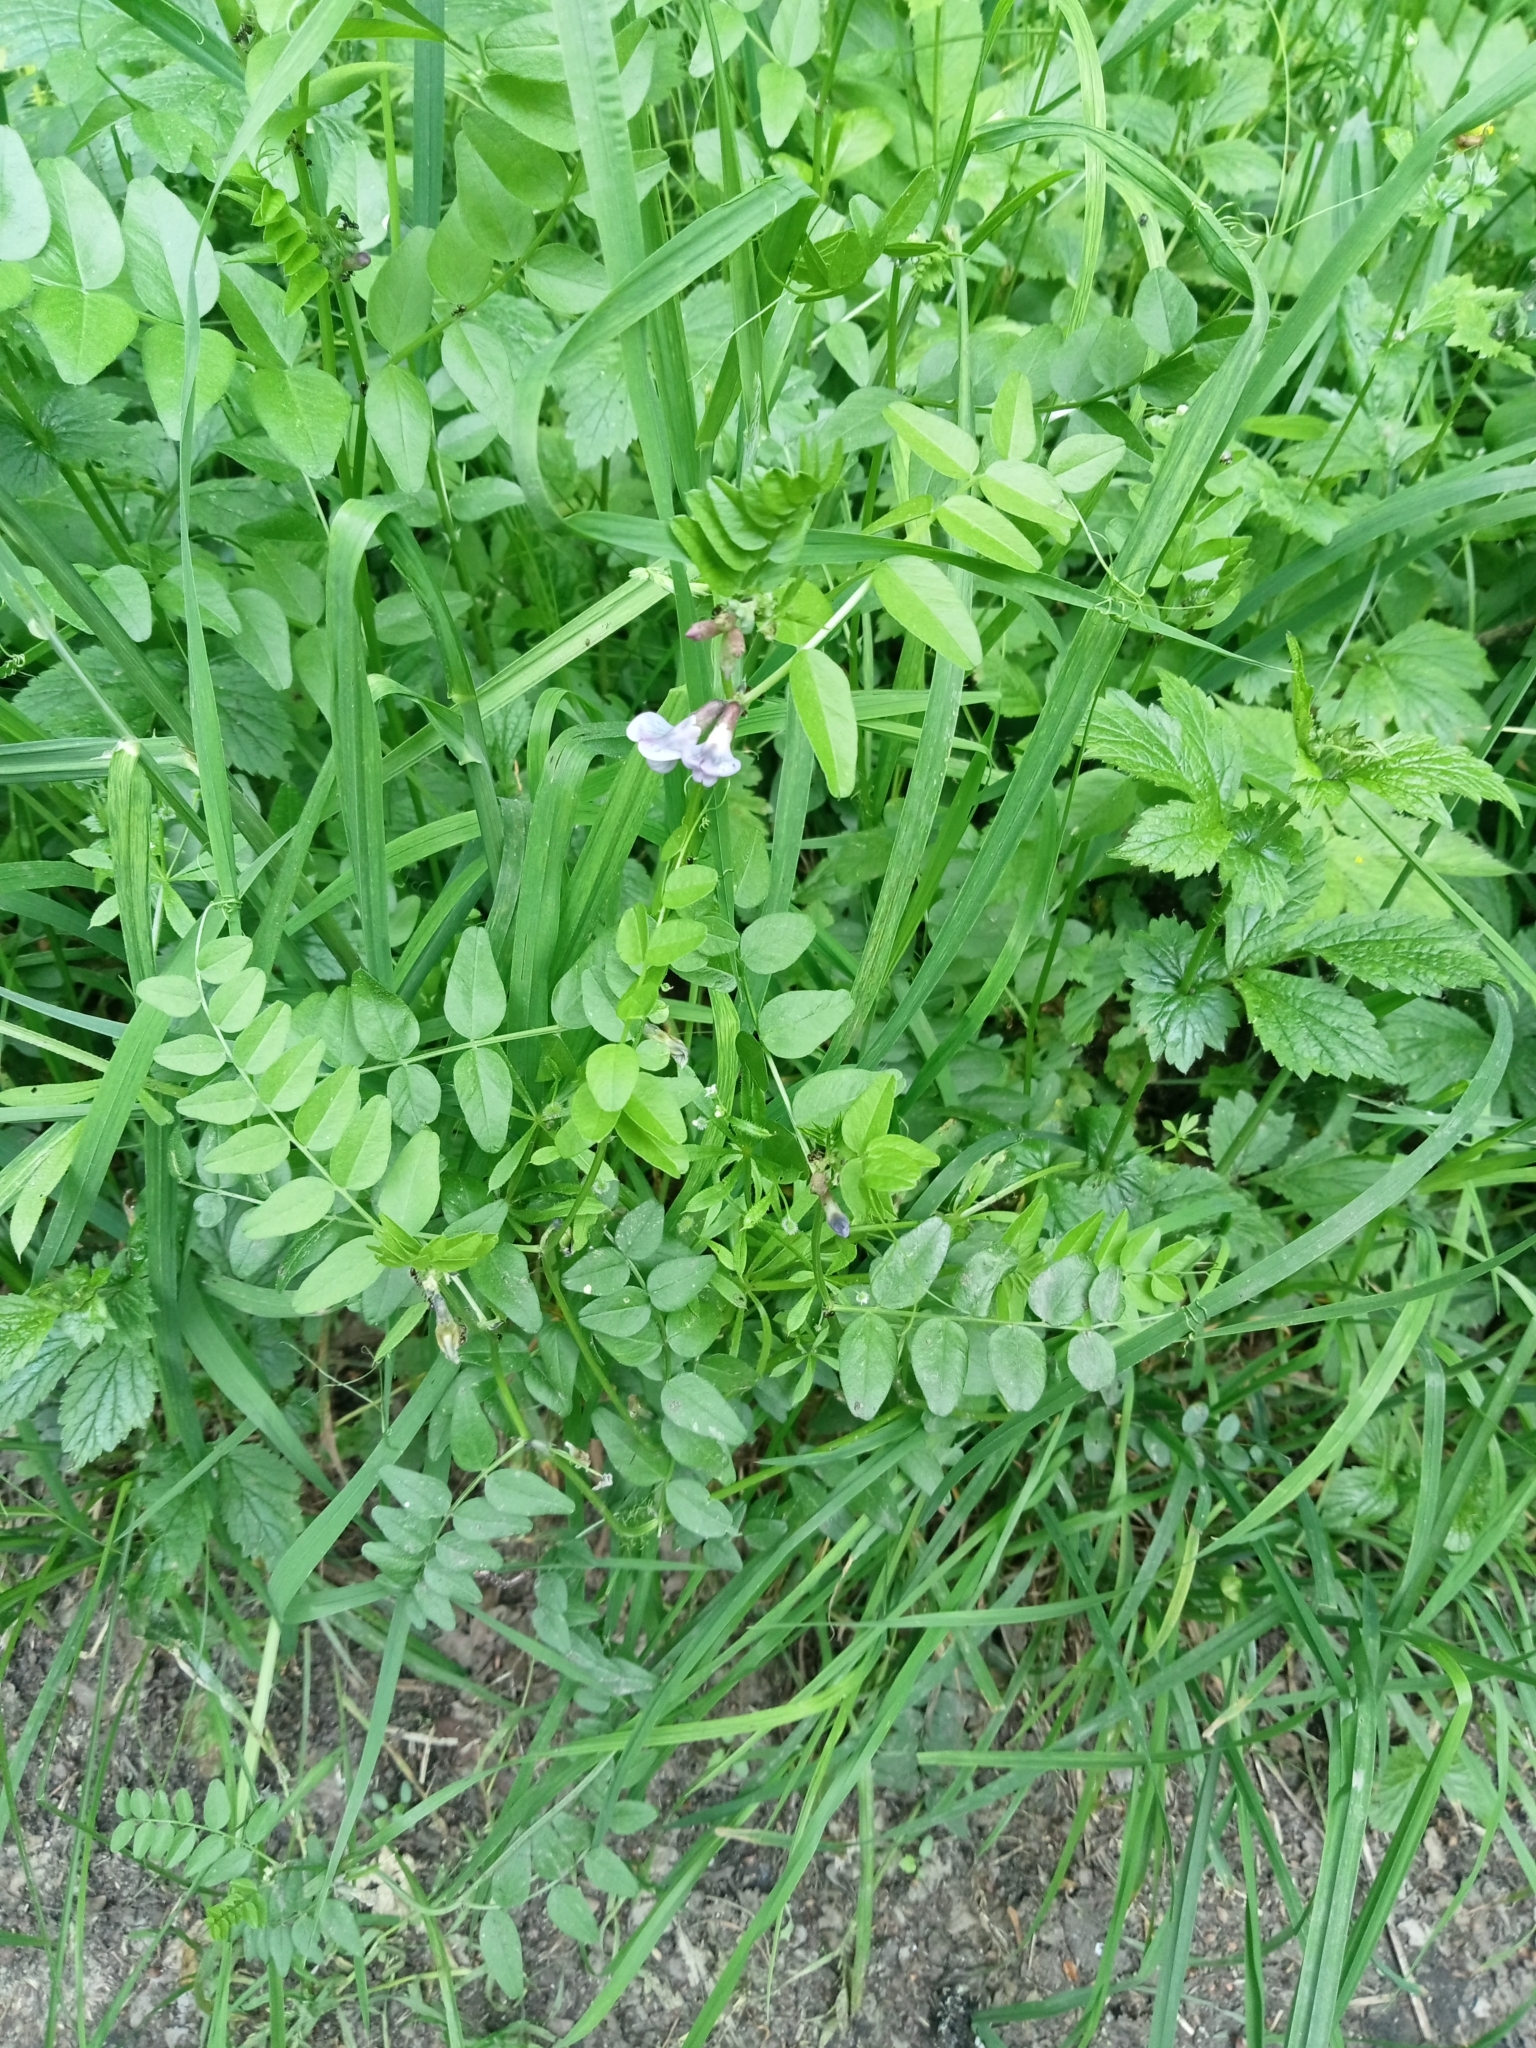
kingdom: Plantae
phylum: Tracheophyta
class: Magnoliopsida
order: Fabales
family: Fabaceae
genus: Vicia
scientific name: Vicia sepium
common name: Bush vetch
